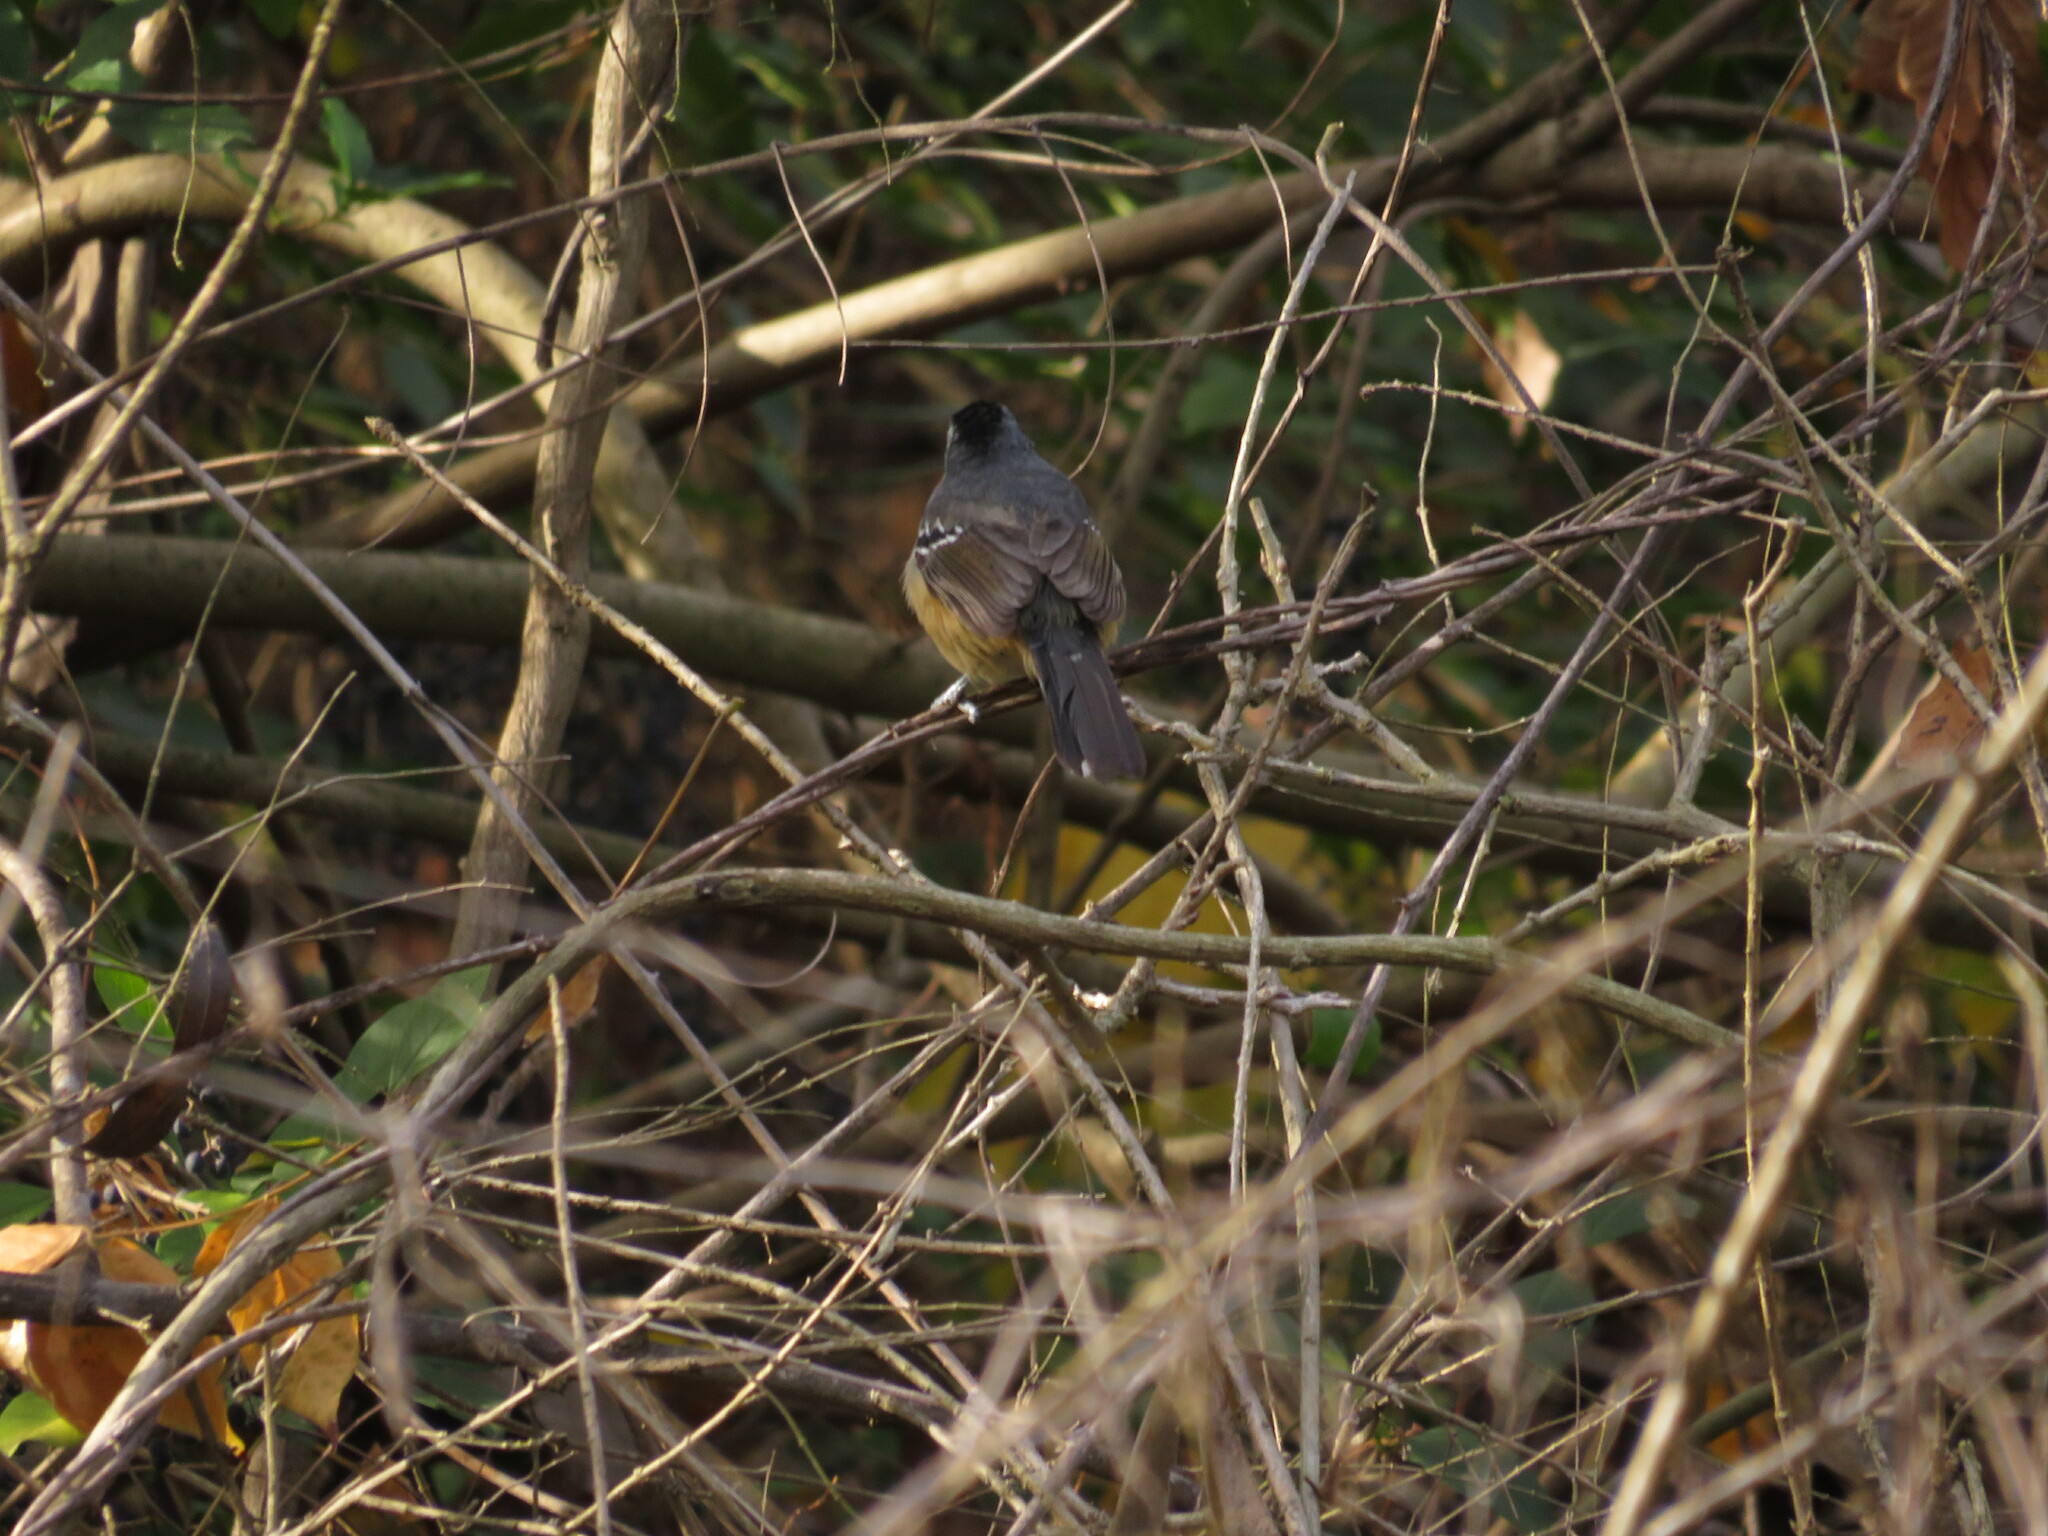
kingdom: Animalia
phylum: Chordata
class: Aves
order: Passeriformes
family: Thamnophilidae
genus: Thamnophilus
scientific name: Thamnophilus caerulescens
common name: Variable antshrike
